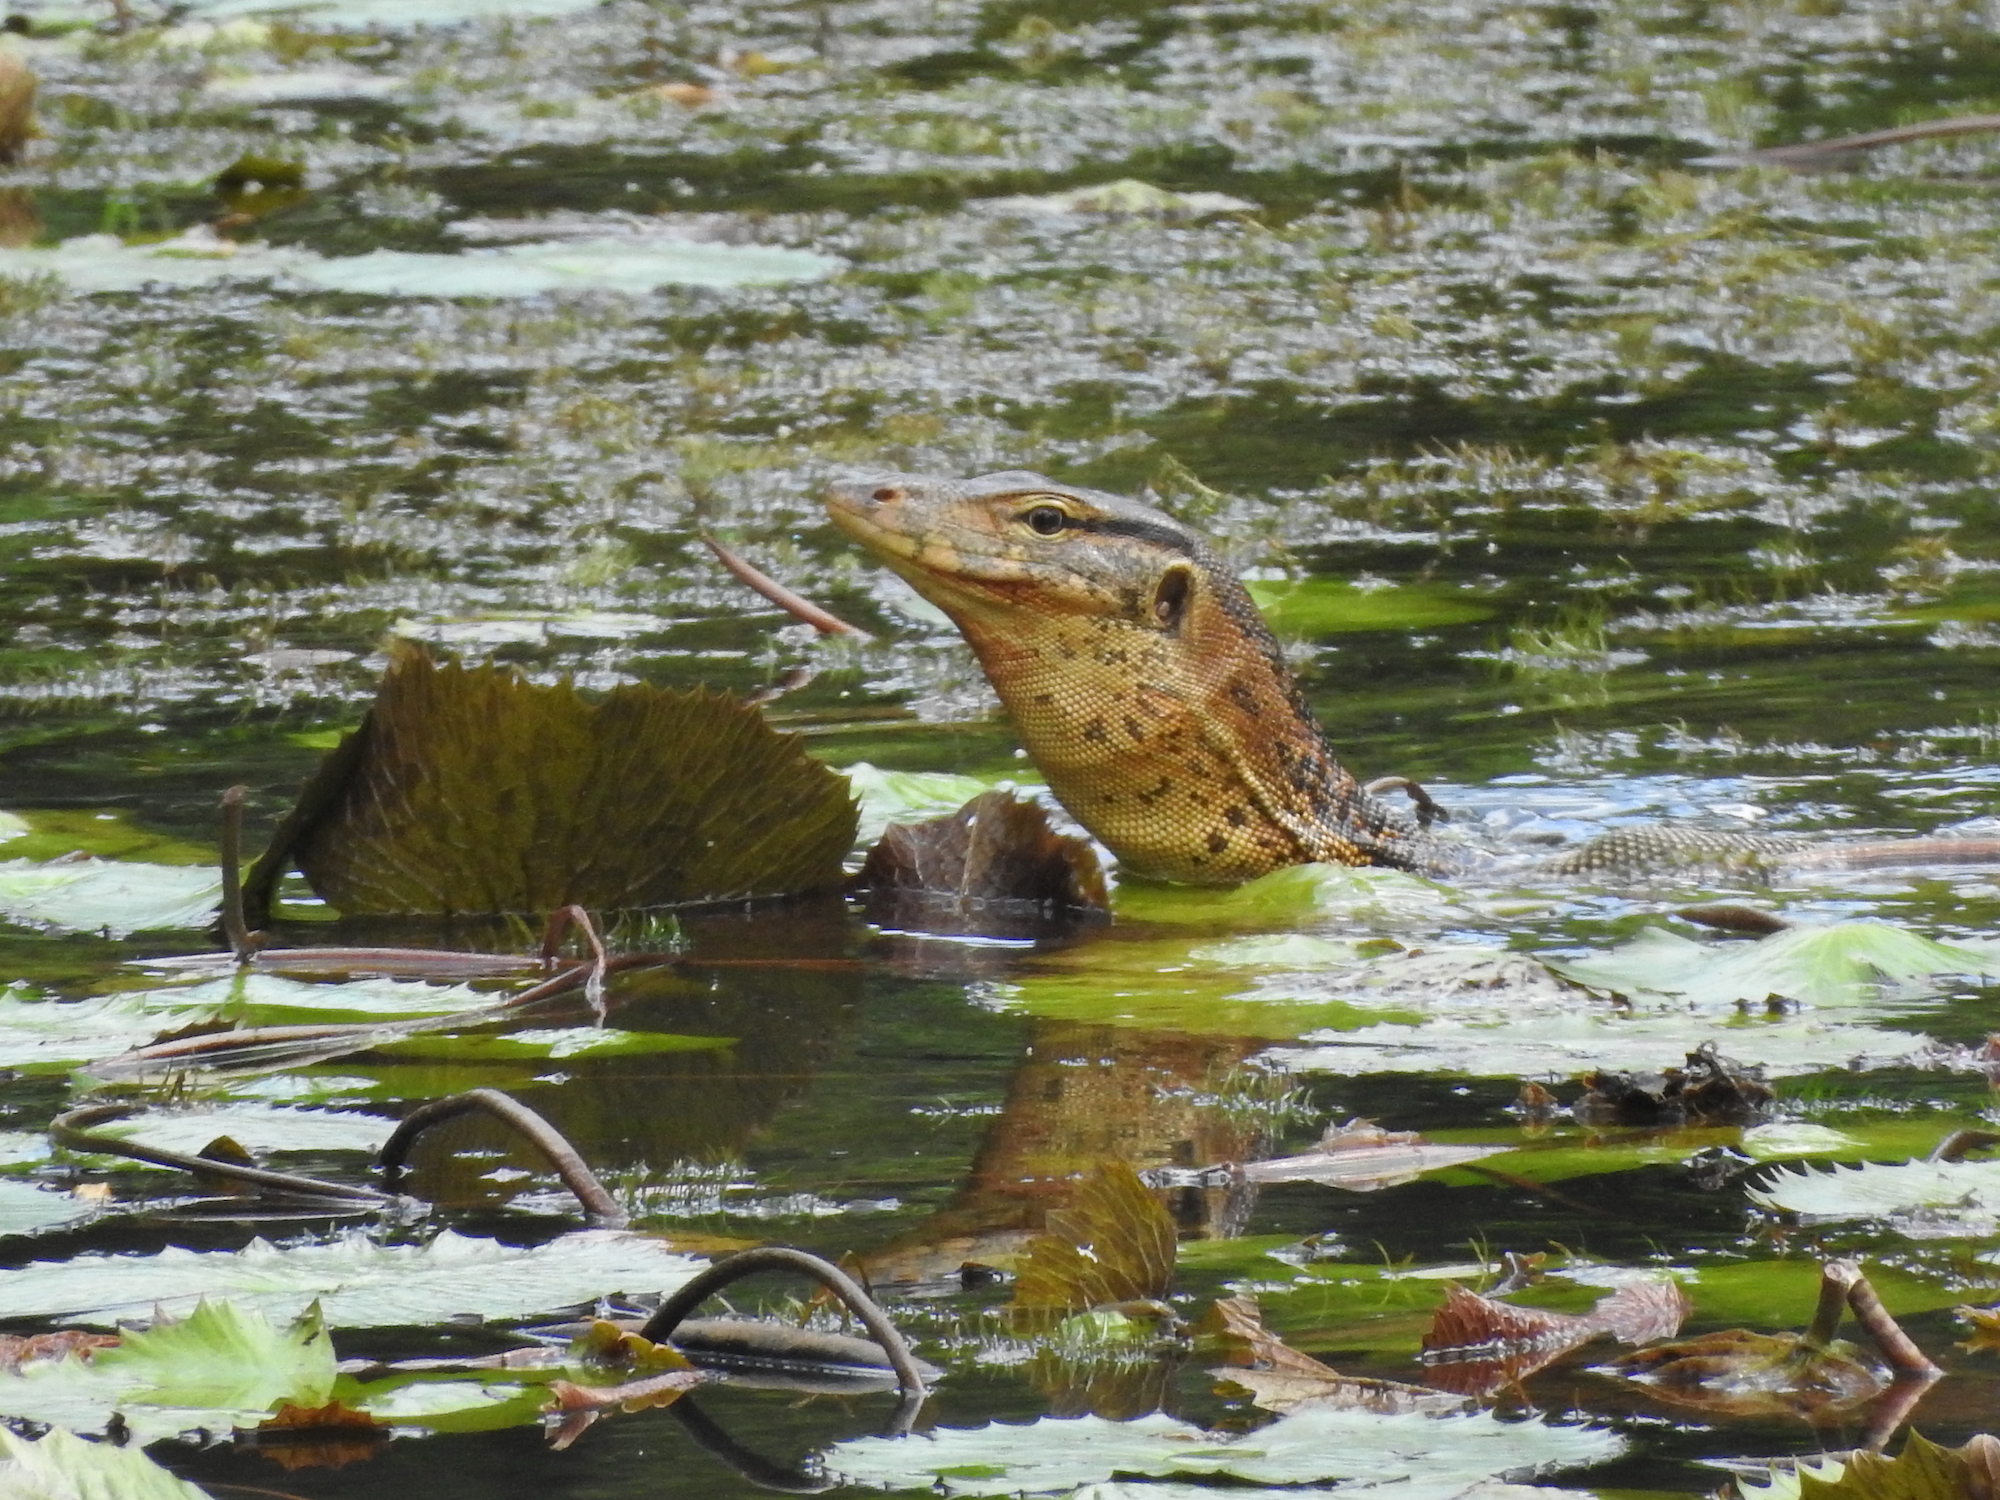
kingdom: Animalia
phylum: Chordata
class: Squamata
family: Varanidae
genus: Varanus
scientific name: Varanus salvator
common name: Common water monitor
